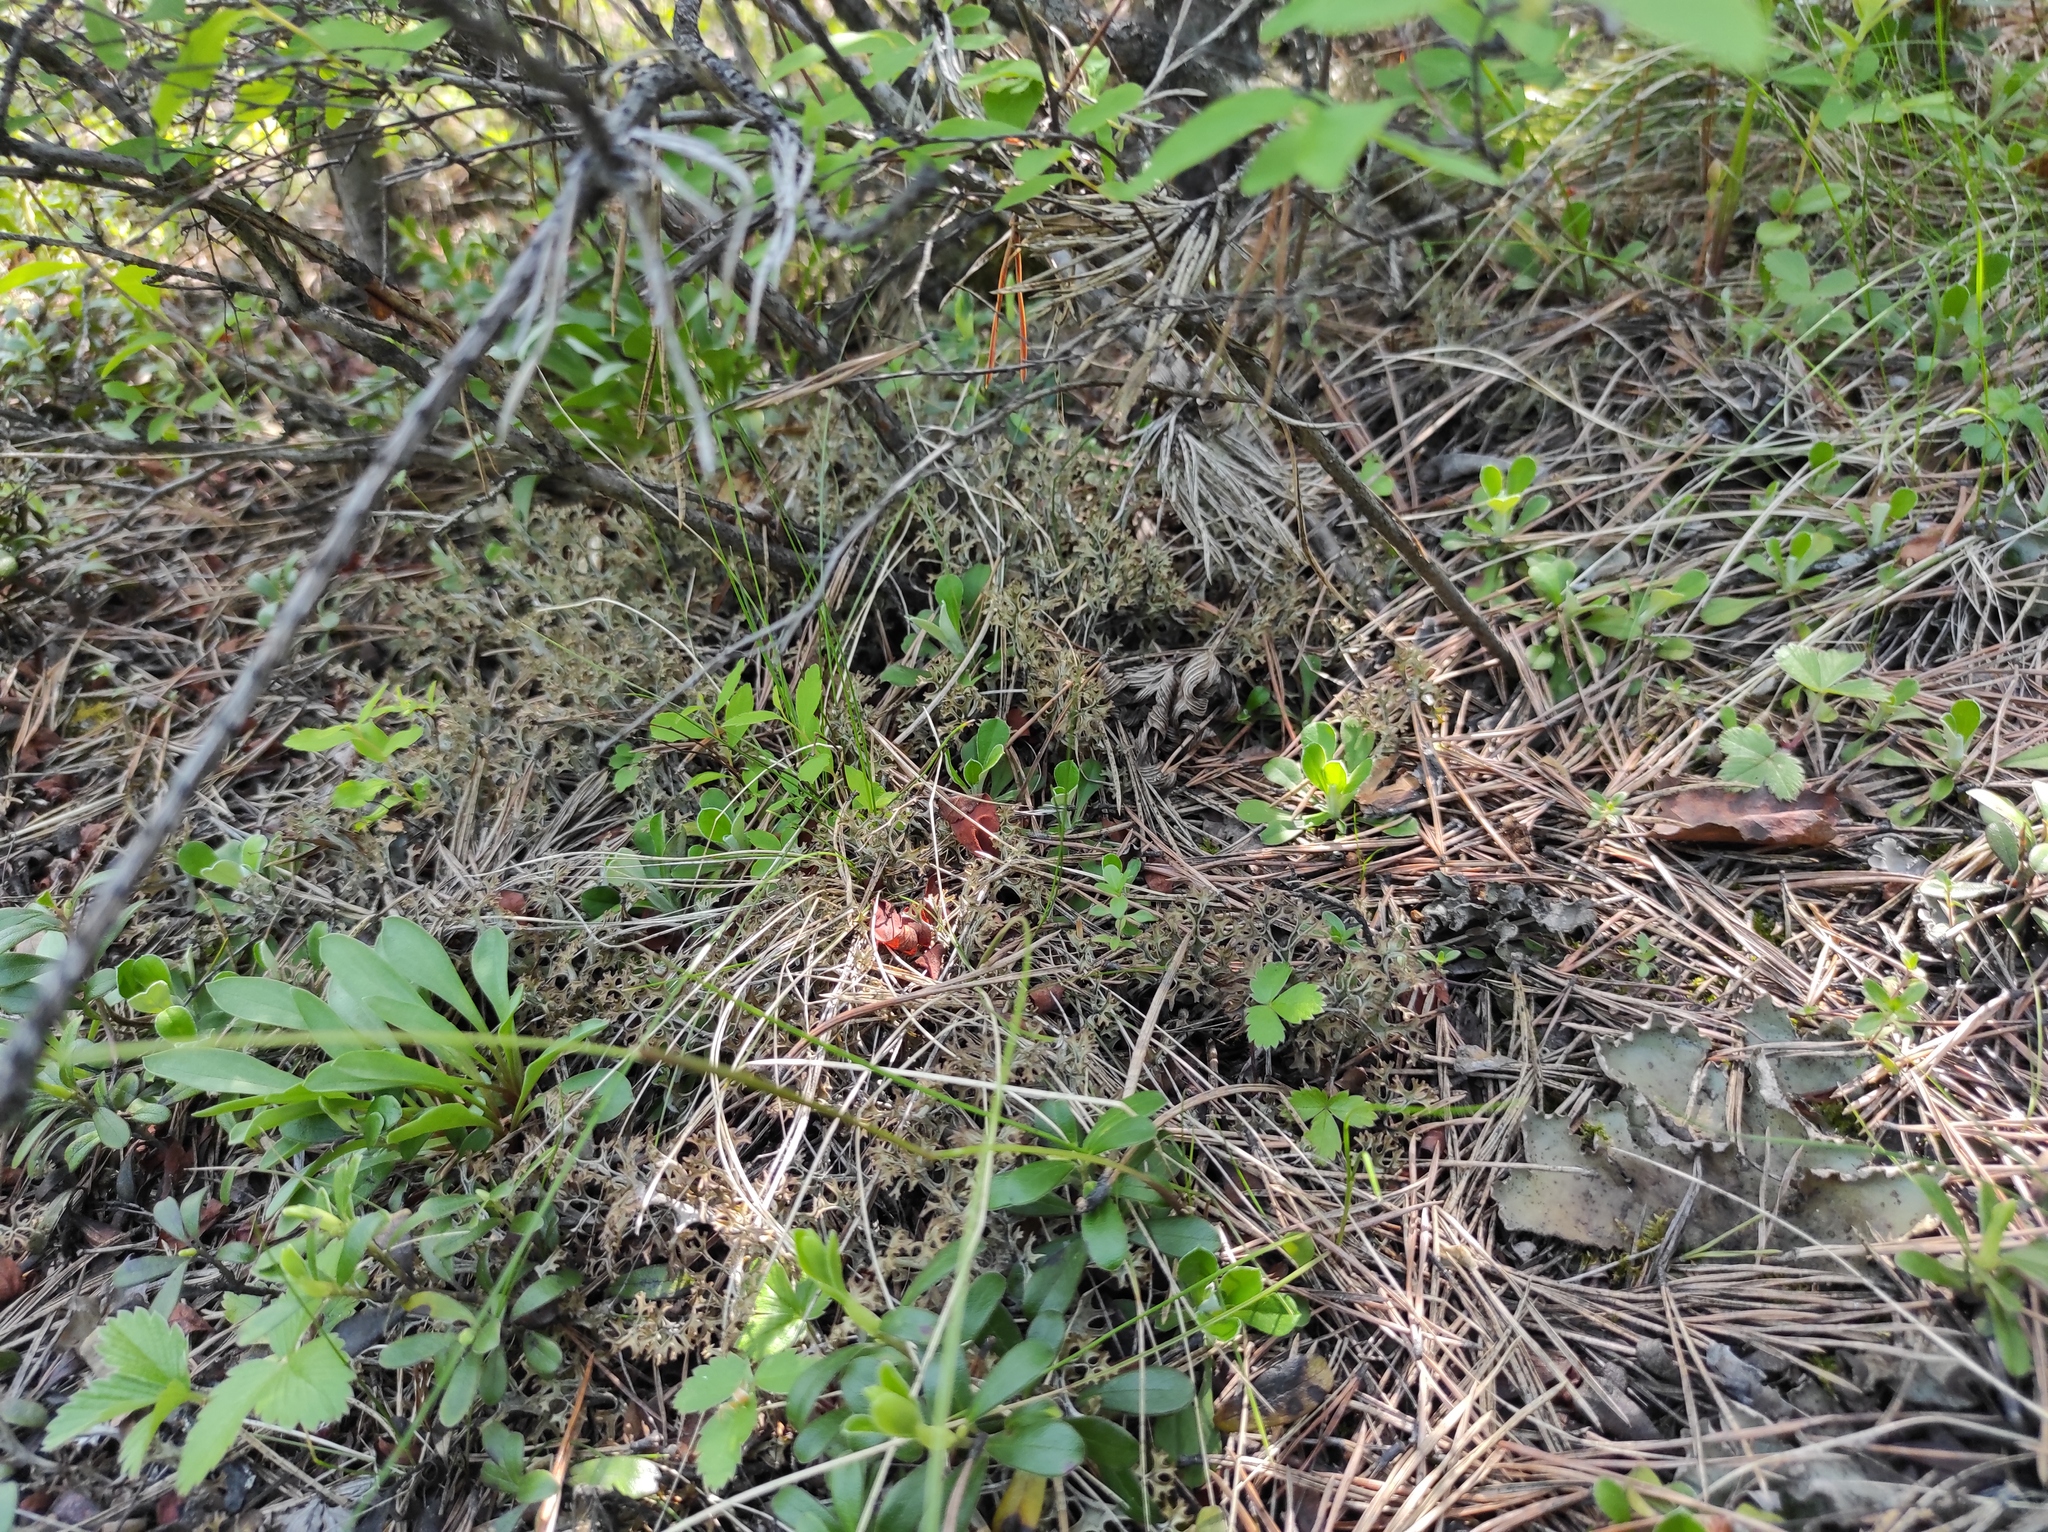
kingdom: Plantae
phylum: Tracheophyta
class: Magnoliopsida
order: Asterales
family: Asteraceae
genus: Antennaria
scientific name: Antennaria dioica
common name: Mountain everlasting
